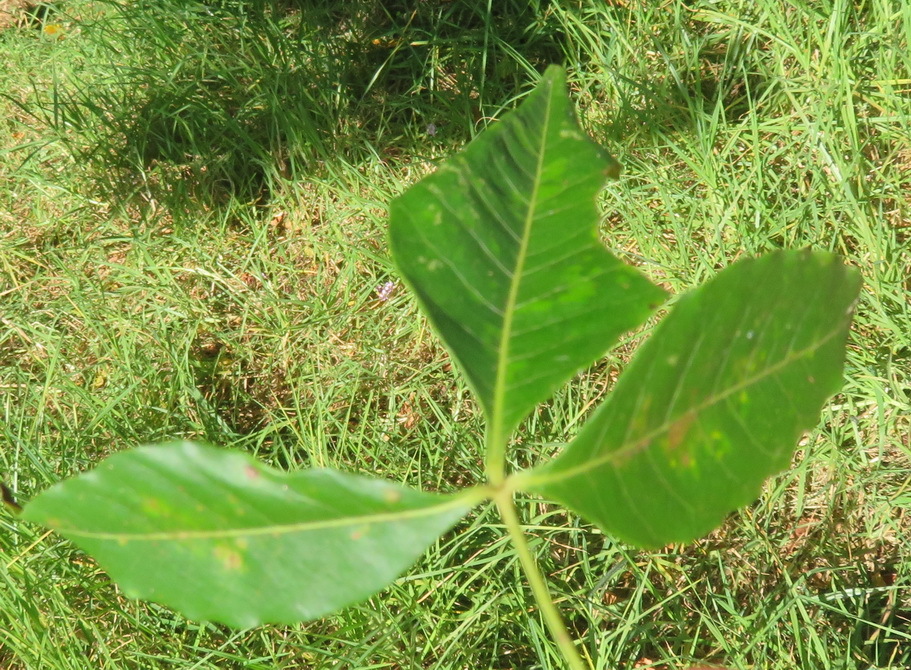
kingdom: Plantae
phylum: Tracheophyta
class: Magnoliopsida
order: Sapindales
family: Anacardiaceae
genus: Searsia
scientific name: Searsia chirindensis
